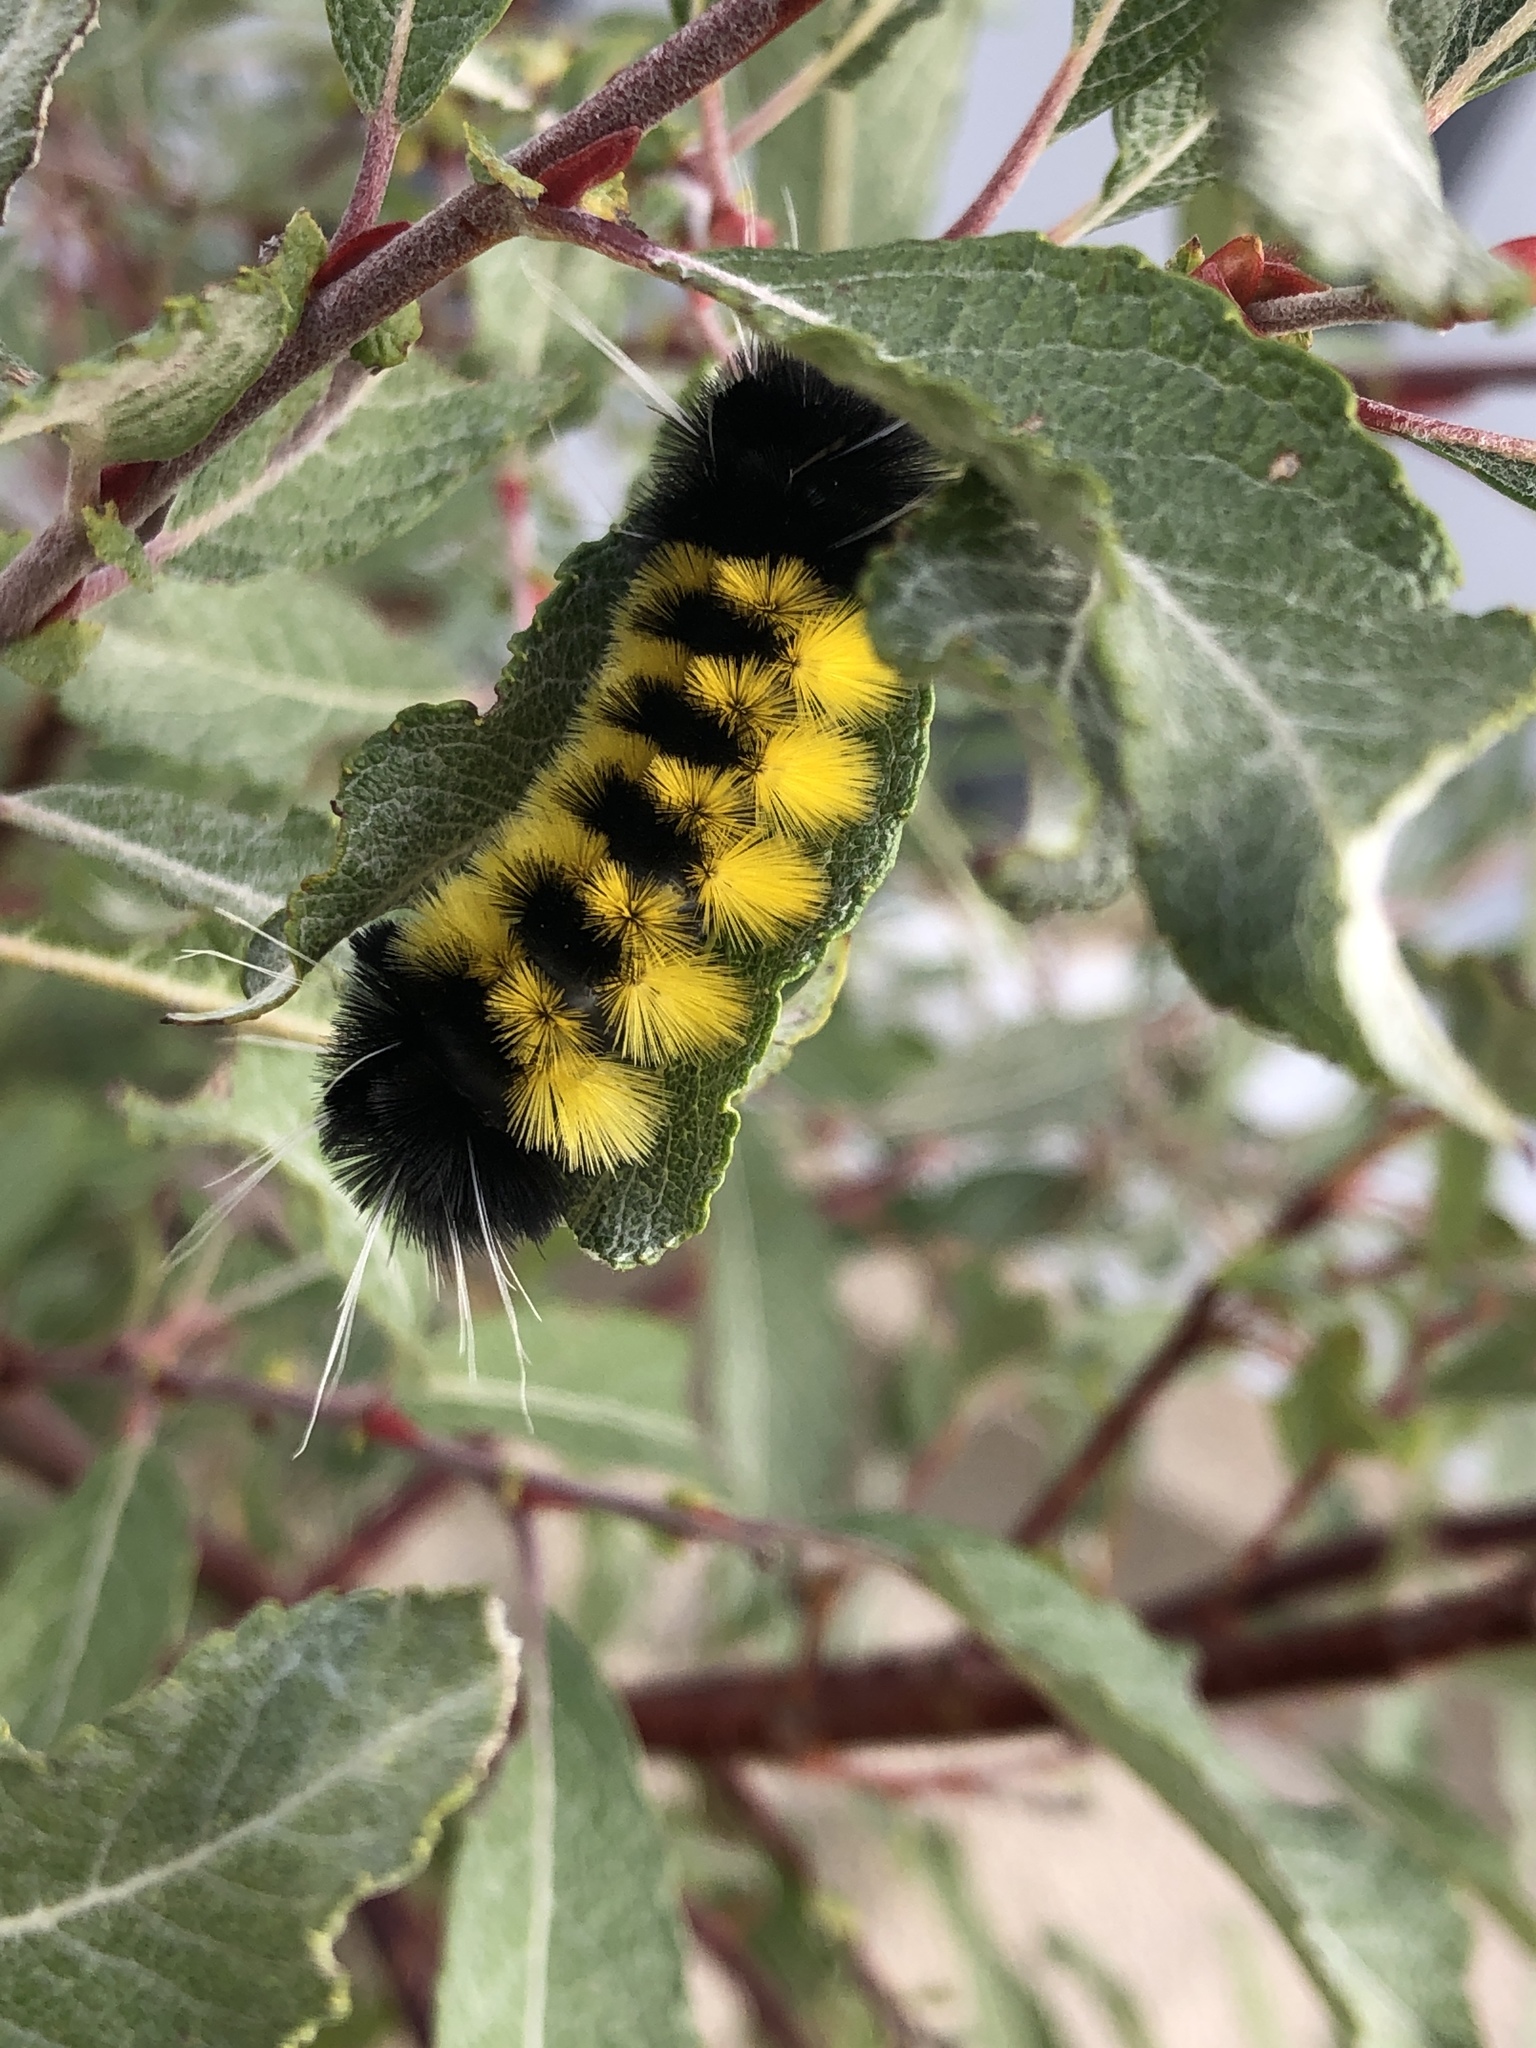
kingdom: Animalia
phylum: Arthropoda
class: Insecta
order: Lepidoptera
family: Erebidae
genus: Lophocampa
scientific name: Lophocampa maculata
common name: Spotted tussock moth
